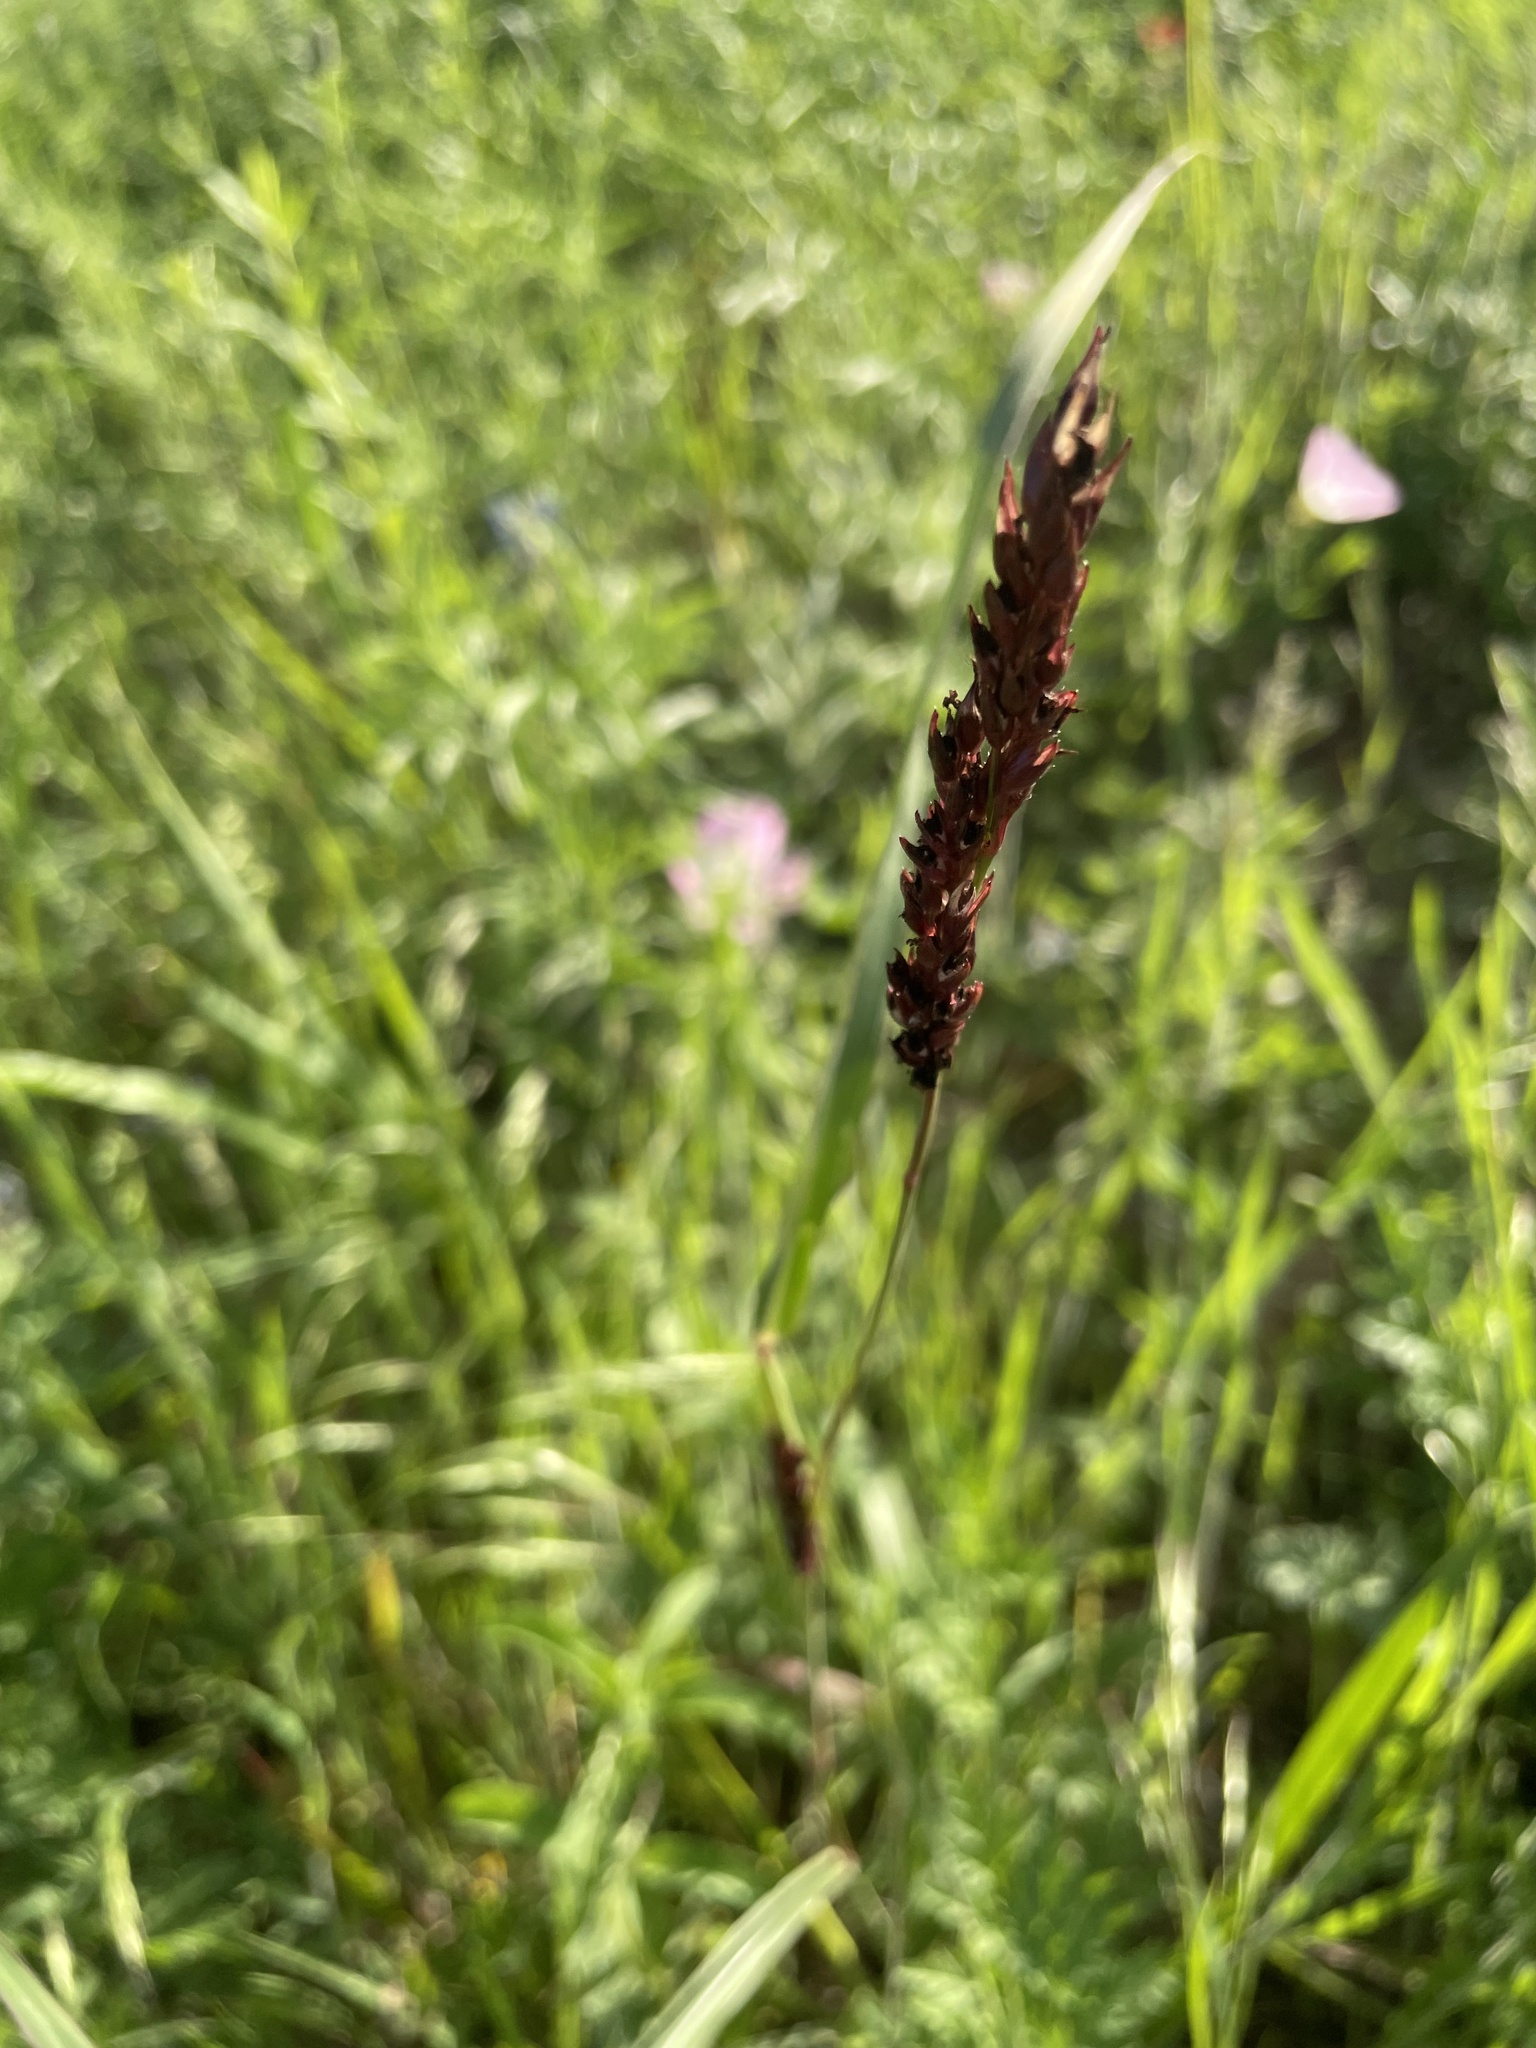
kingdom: Plantae
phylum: Tracheophyta
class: Liliopsida
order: Poales
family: Poaceae
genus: Sorghum
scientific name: Sorghum halepense
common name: Johnson-grass
